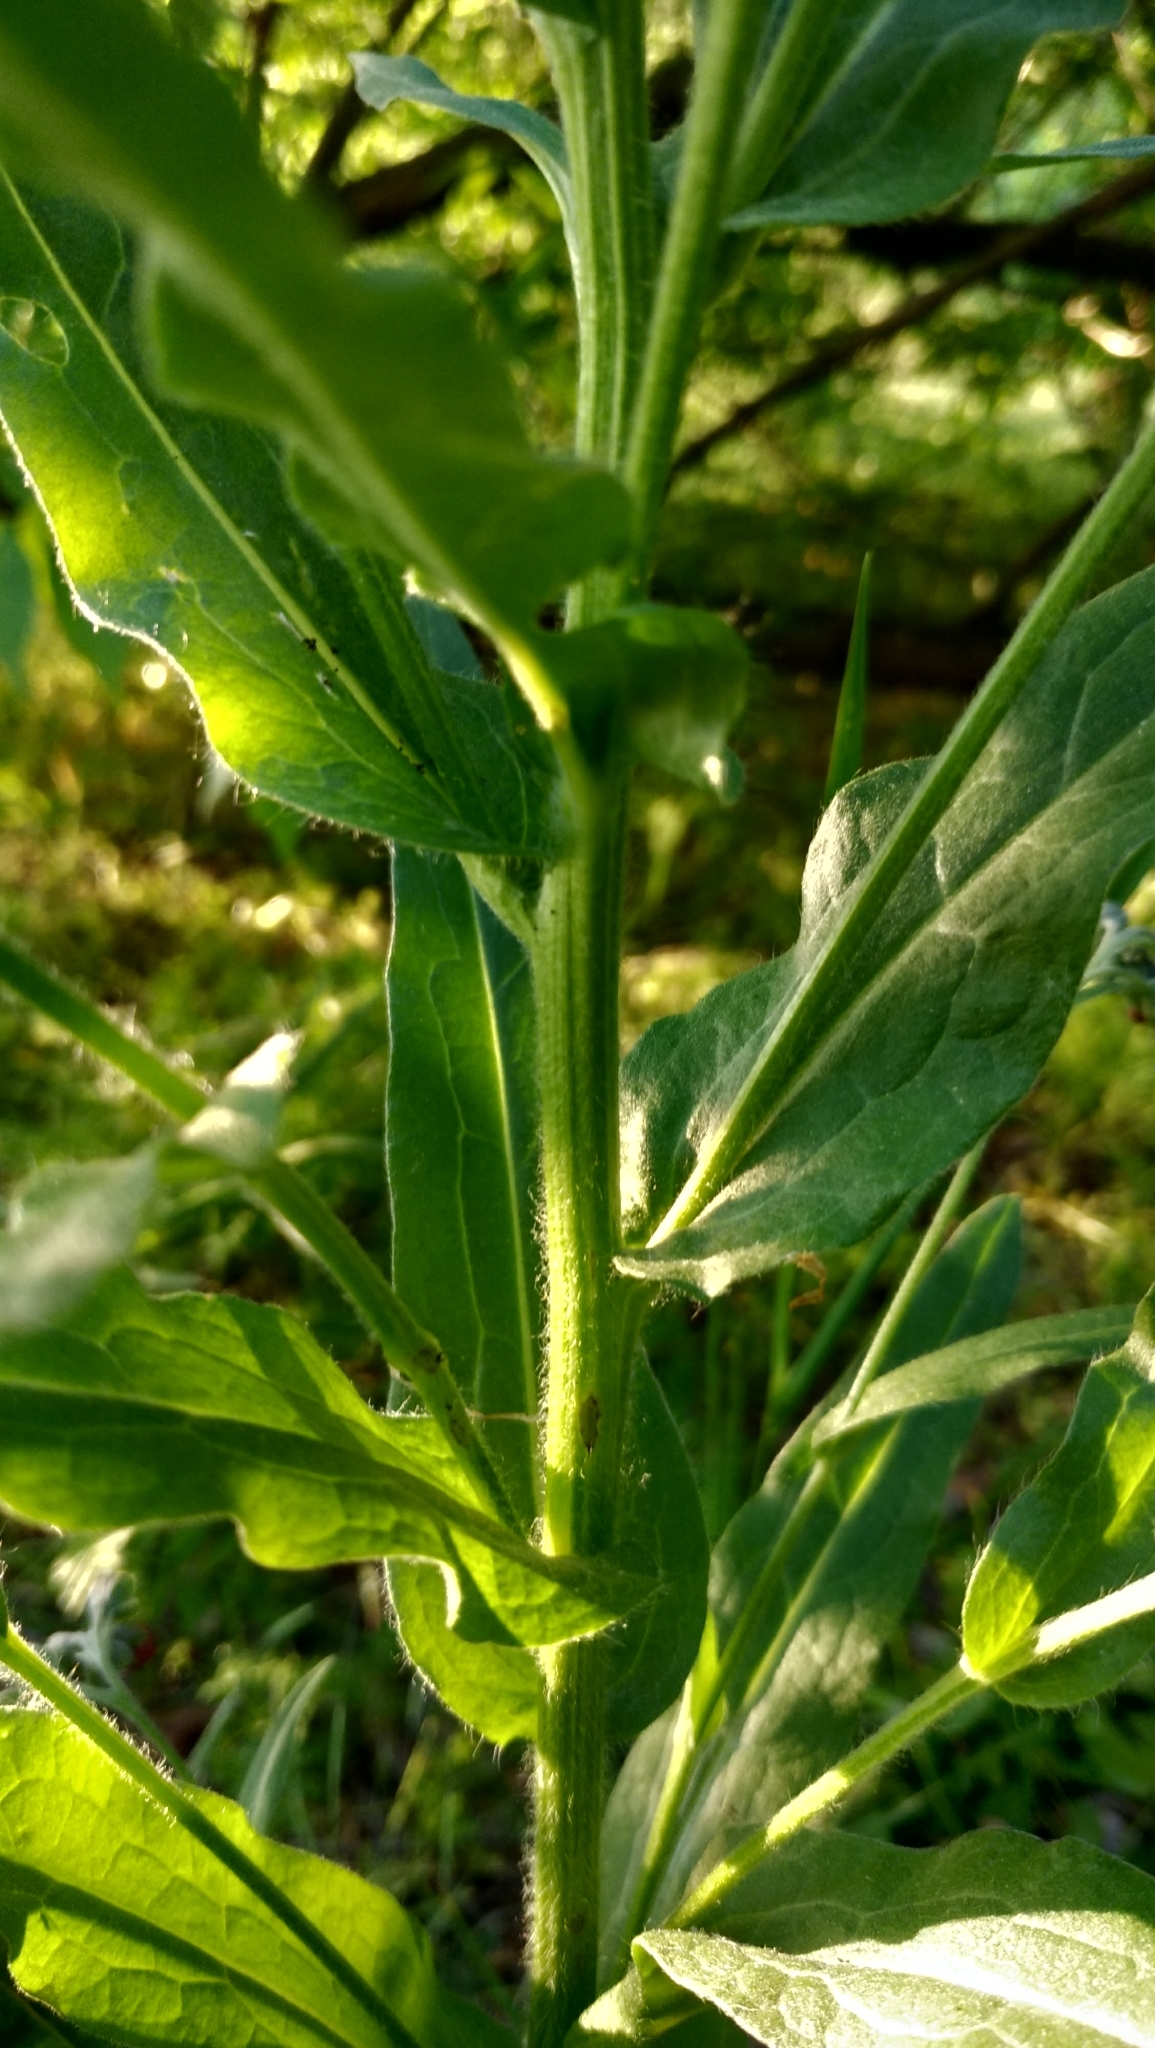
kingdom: Plantae
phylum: Tracheophyta
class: Magnoliopsida
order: Boraginales
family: Boraginaceae
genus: Cynoglossum
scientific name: Cynoglossum officinale
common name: Hound's-tongue
